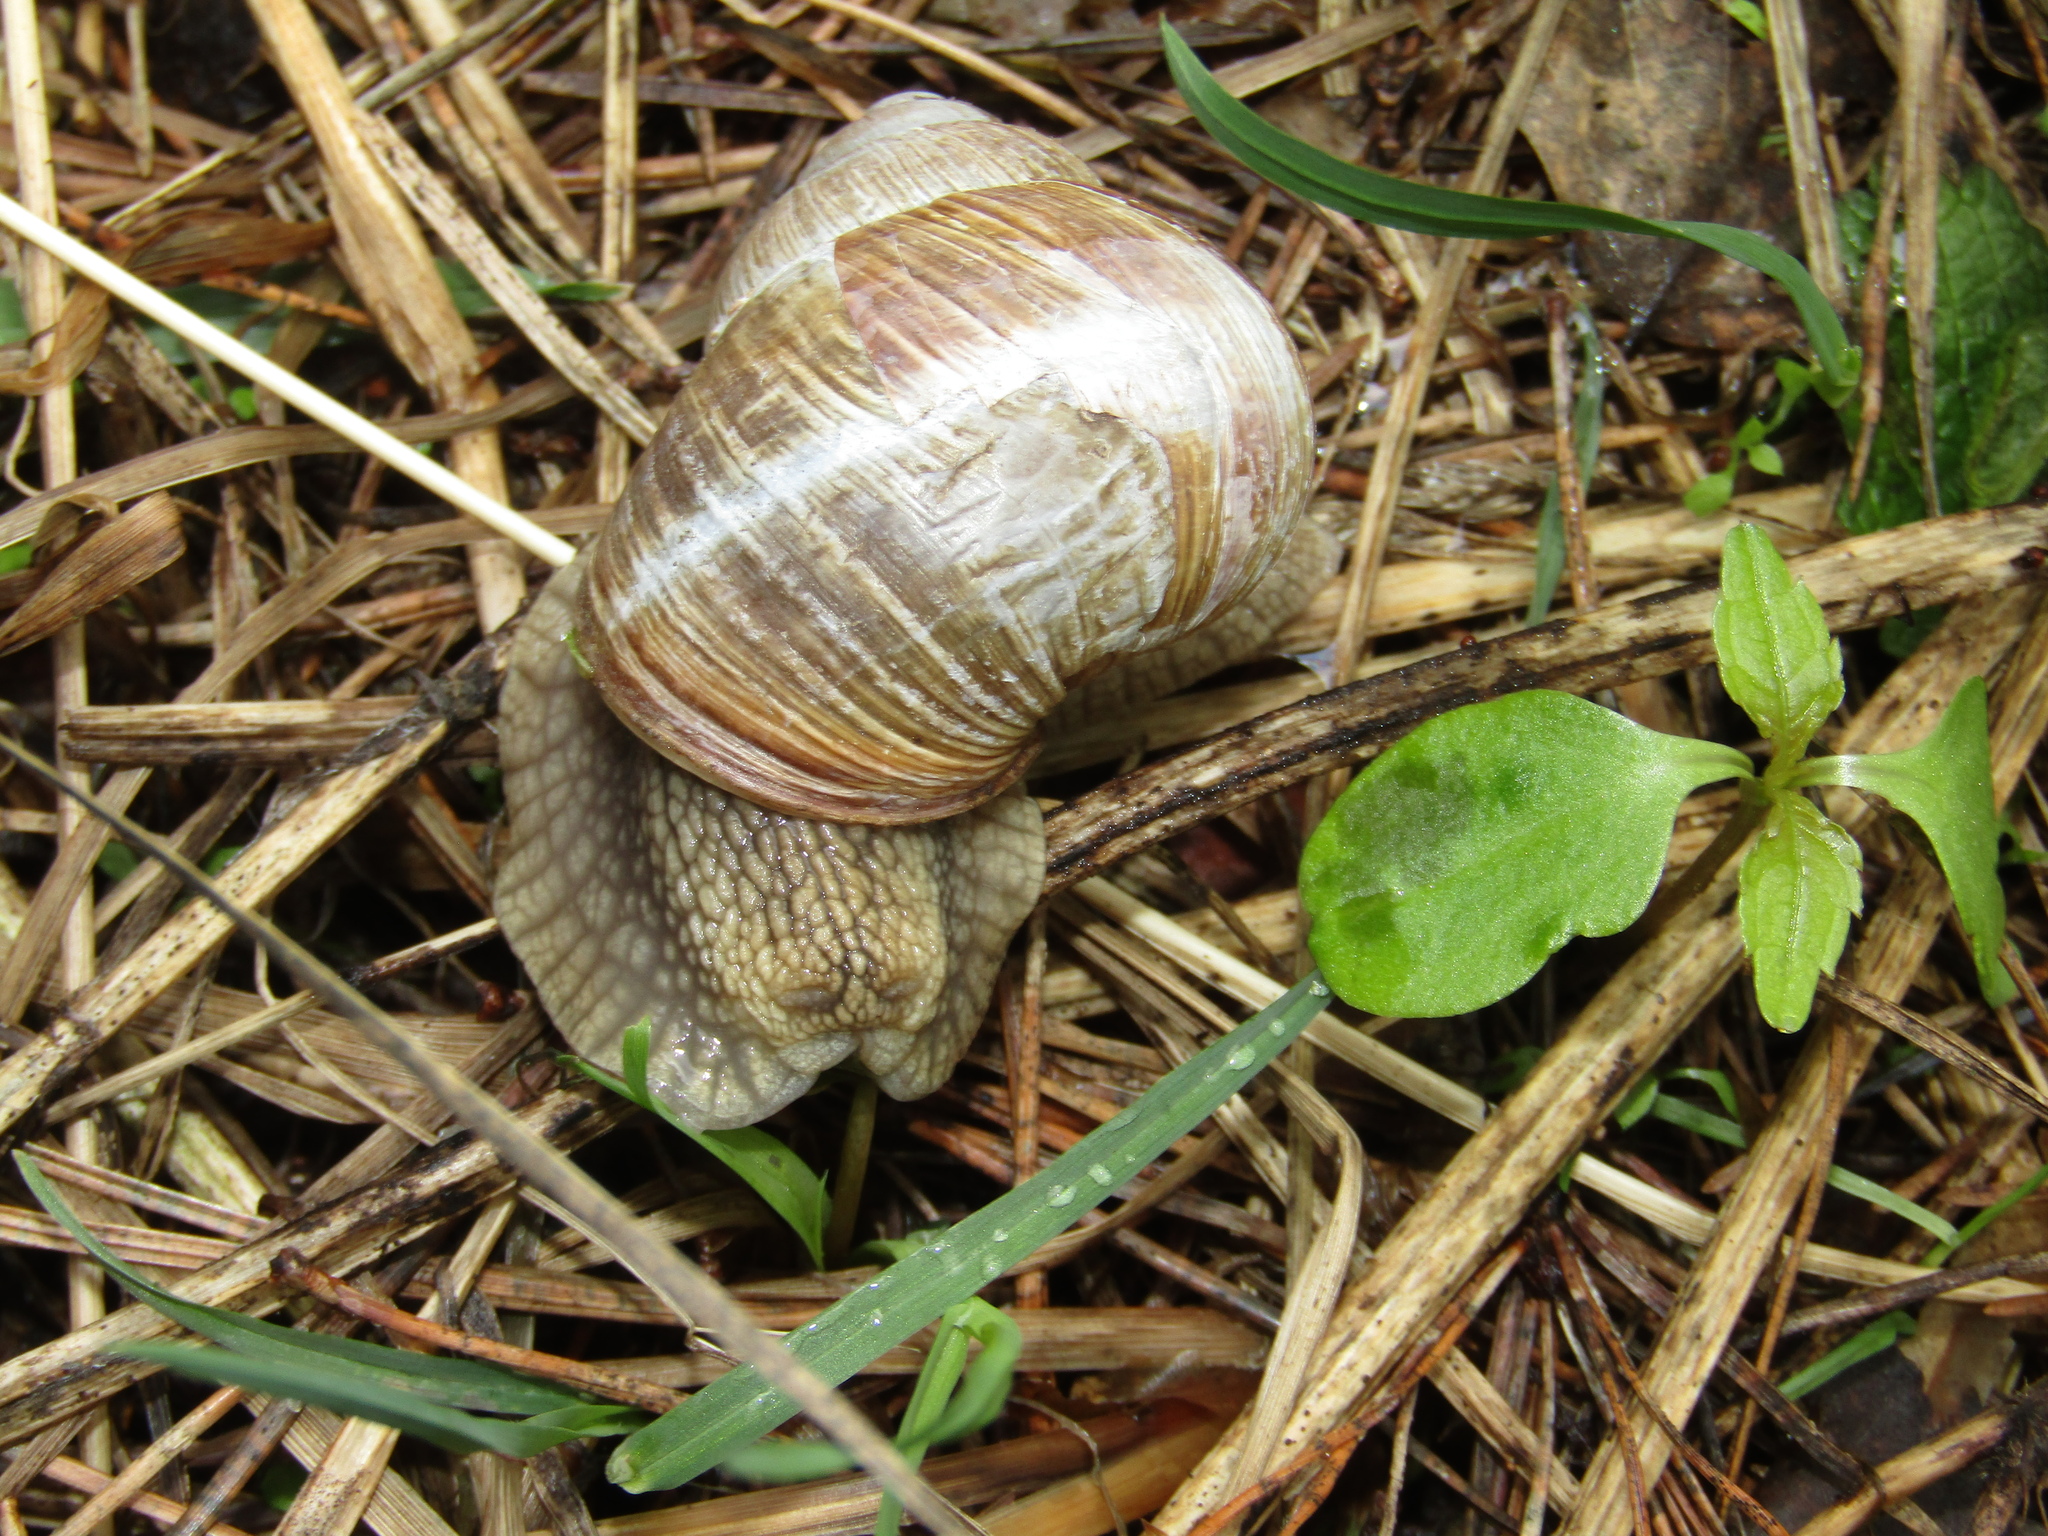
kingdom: Animalia
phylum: Mollusca
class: Gastropoda
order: Stylommatophora
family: Helicidae
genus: Helix
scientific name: Helix pomatia
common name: Roman snail
